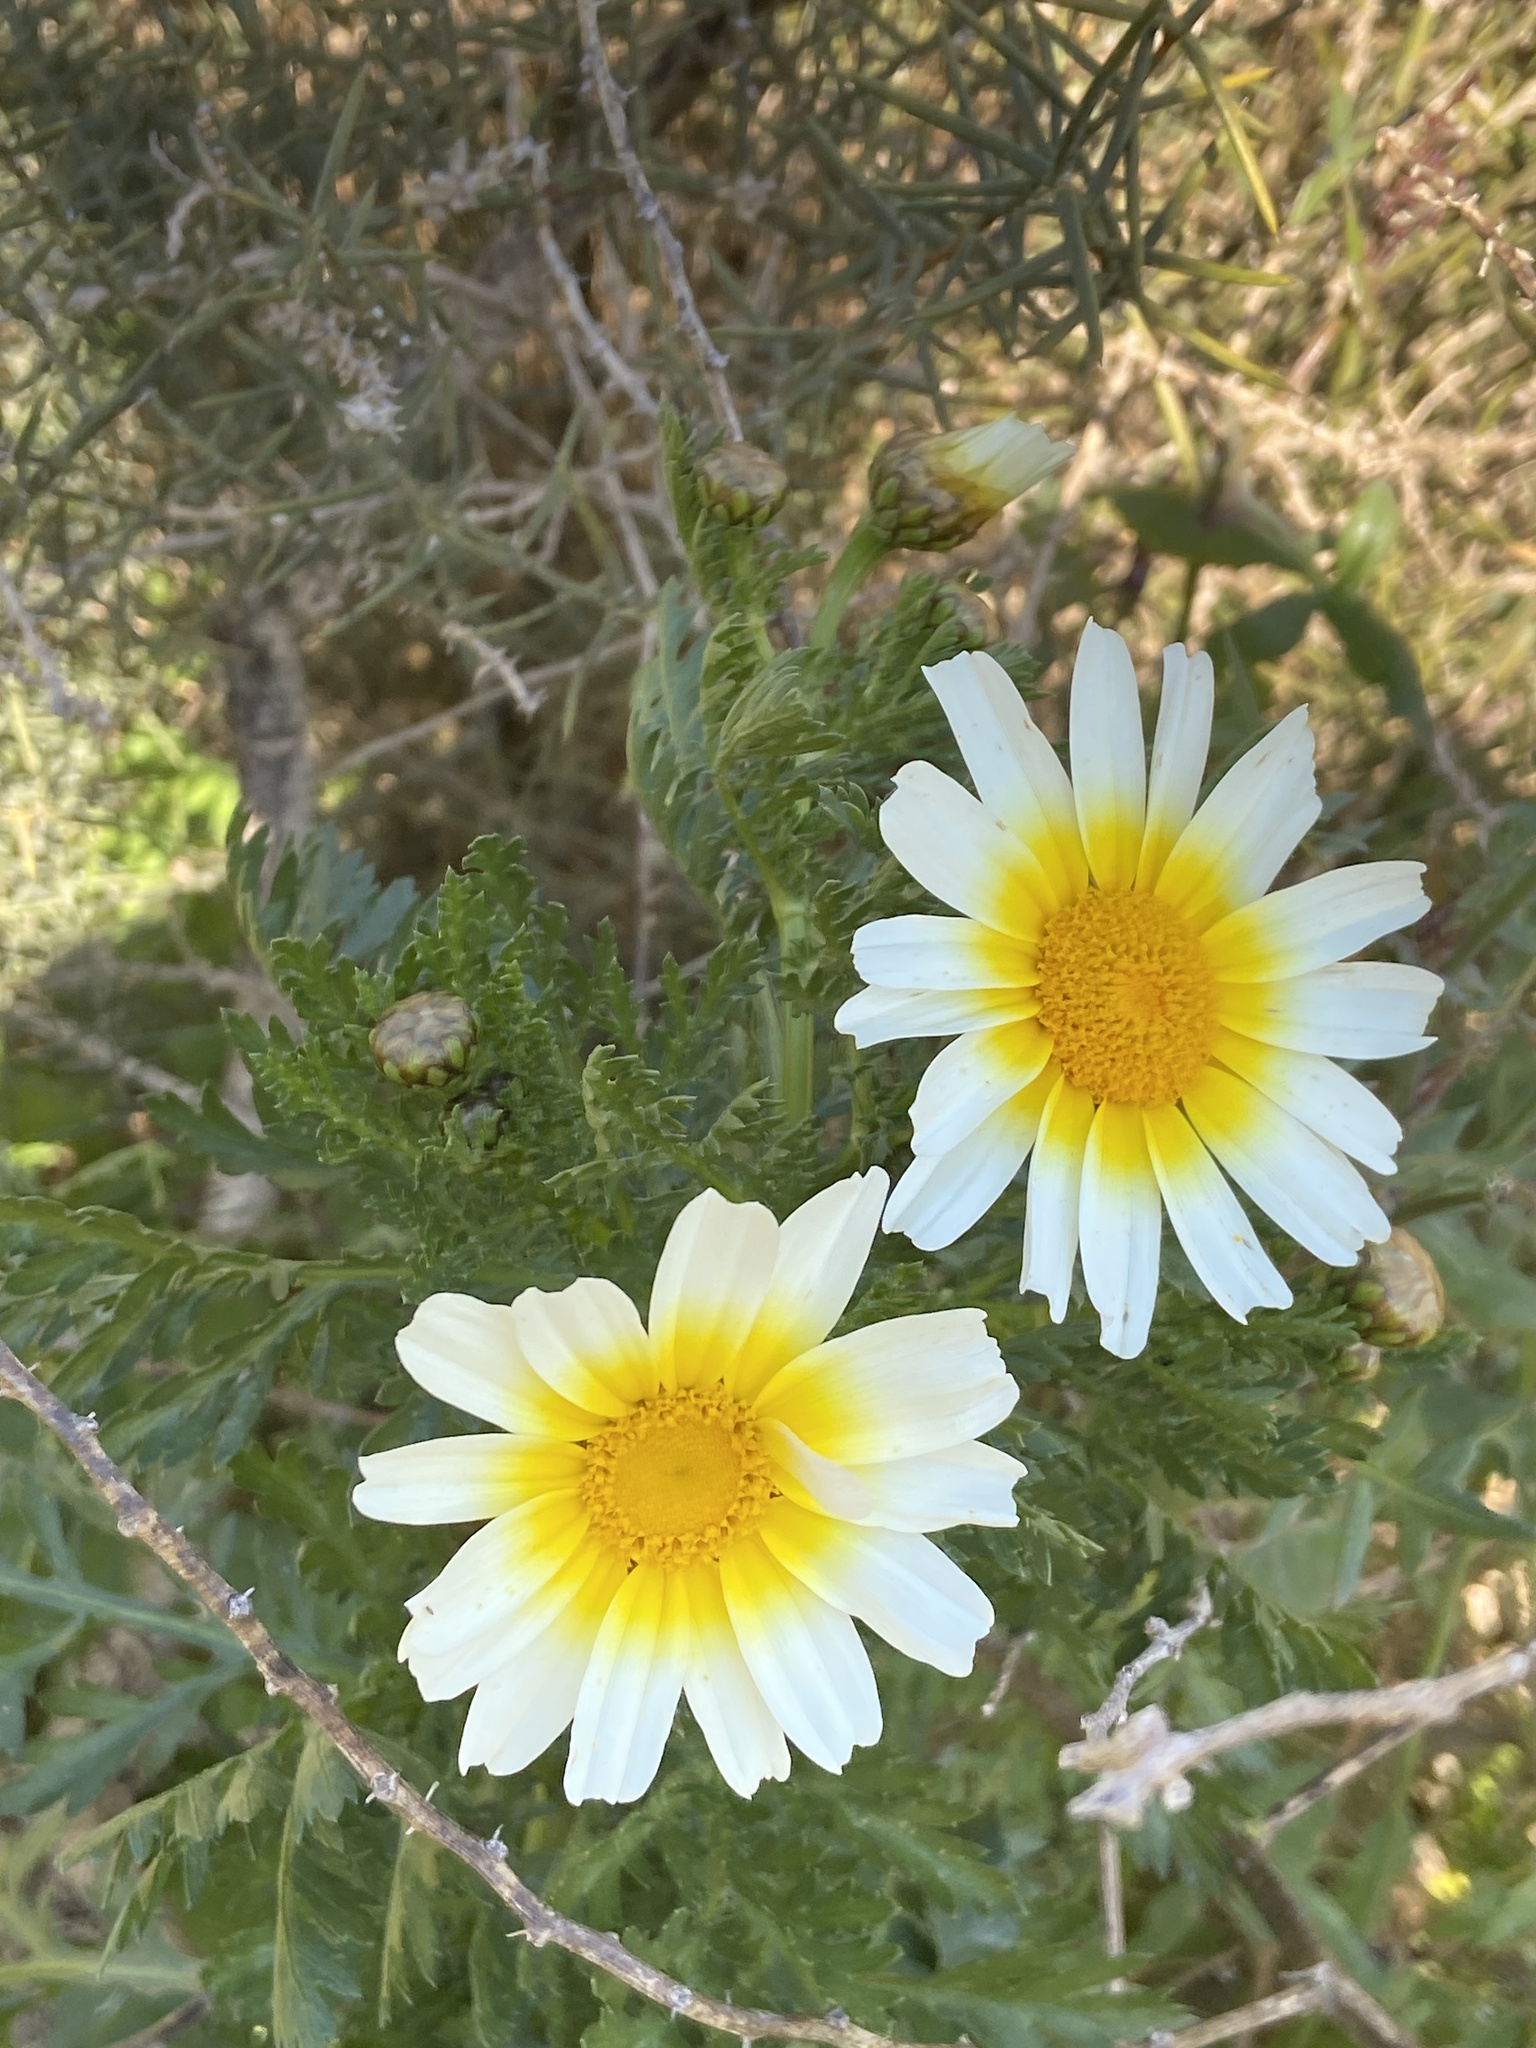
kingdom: Plantae
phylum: Tracheophyta
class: Magnoliopsida
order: Asterales
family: Asteraceae
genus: Glebionis
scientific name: Glebionis coronaria
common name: Crowndaisy
